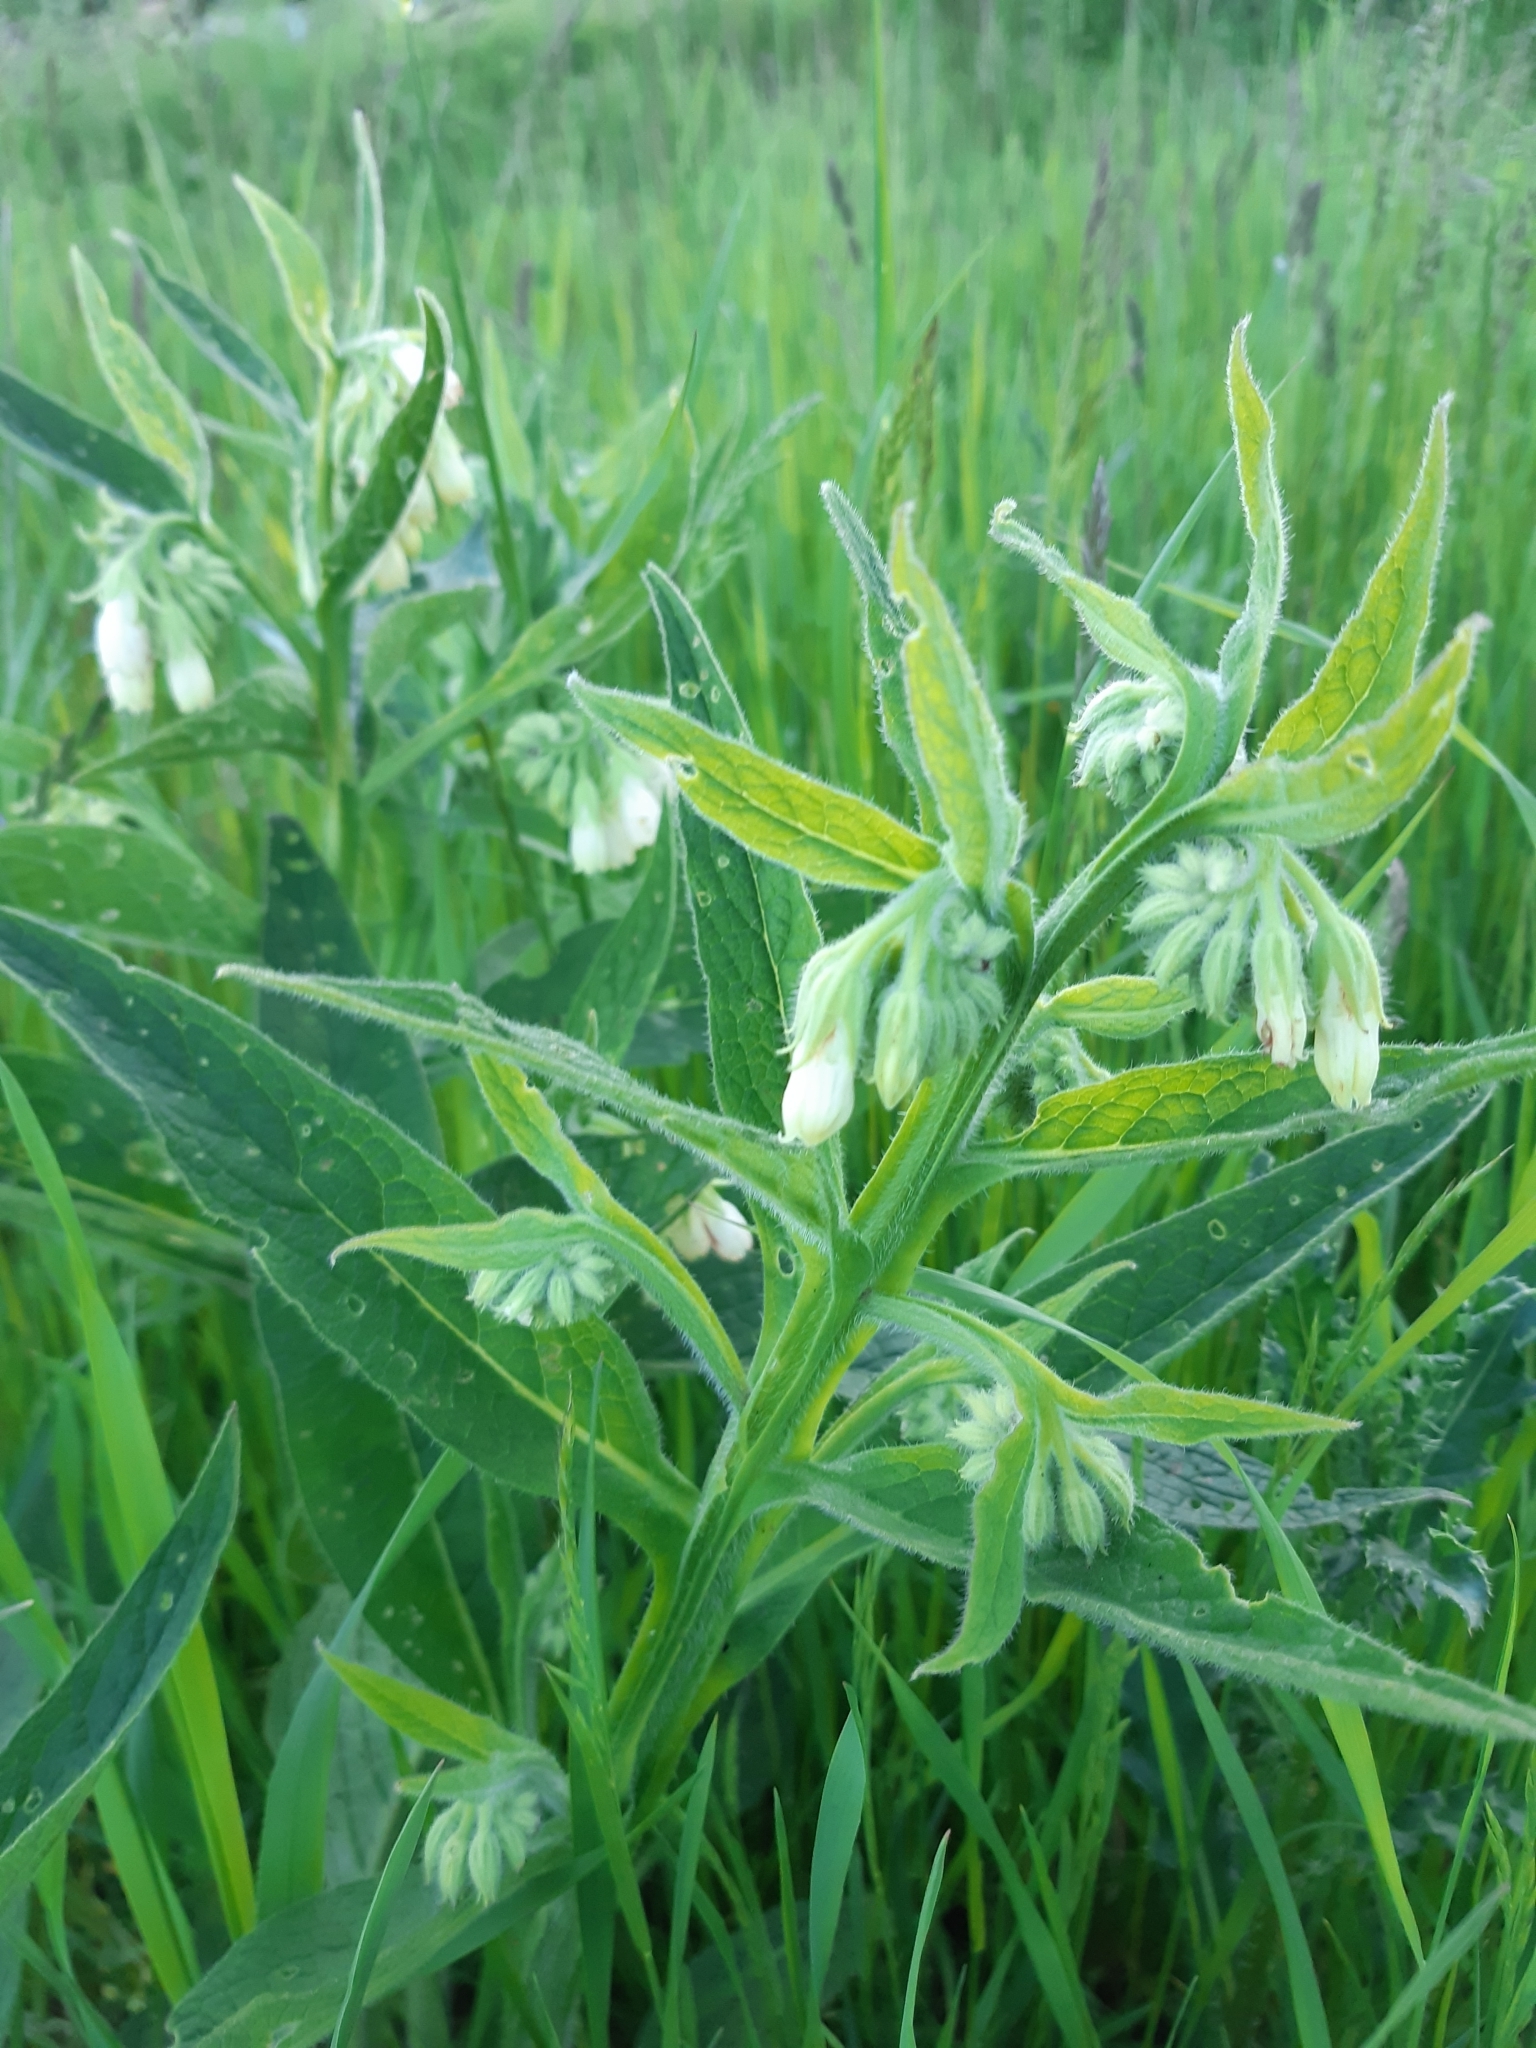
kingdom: Plantae
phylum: Tracheophyta
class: Magnoliopsida
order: Boraginales
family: Boraginaceae
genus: Symphytum
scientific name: Symphytum officinale
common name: Common comfrey
